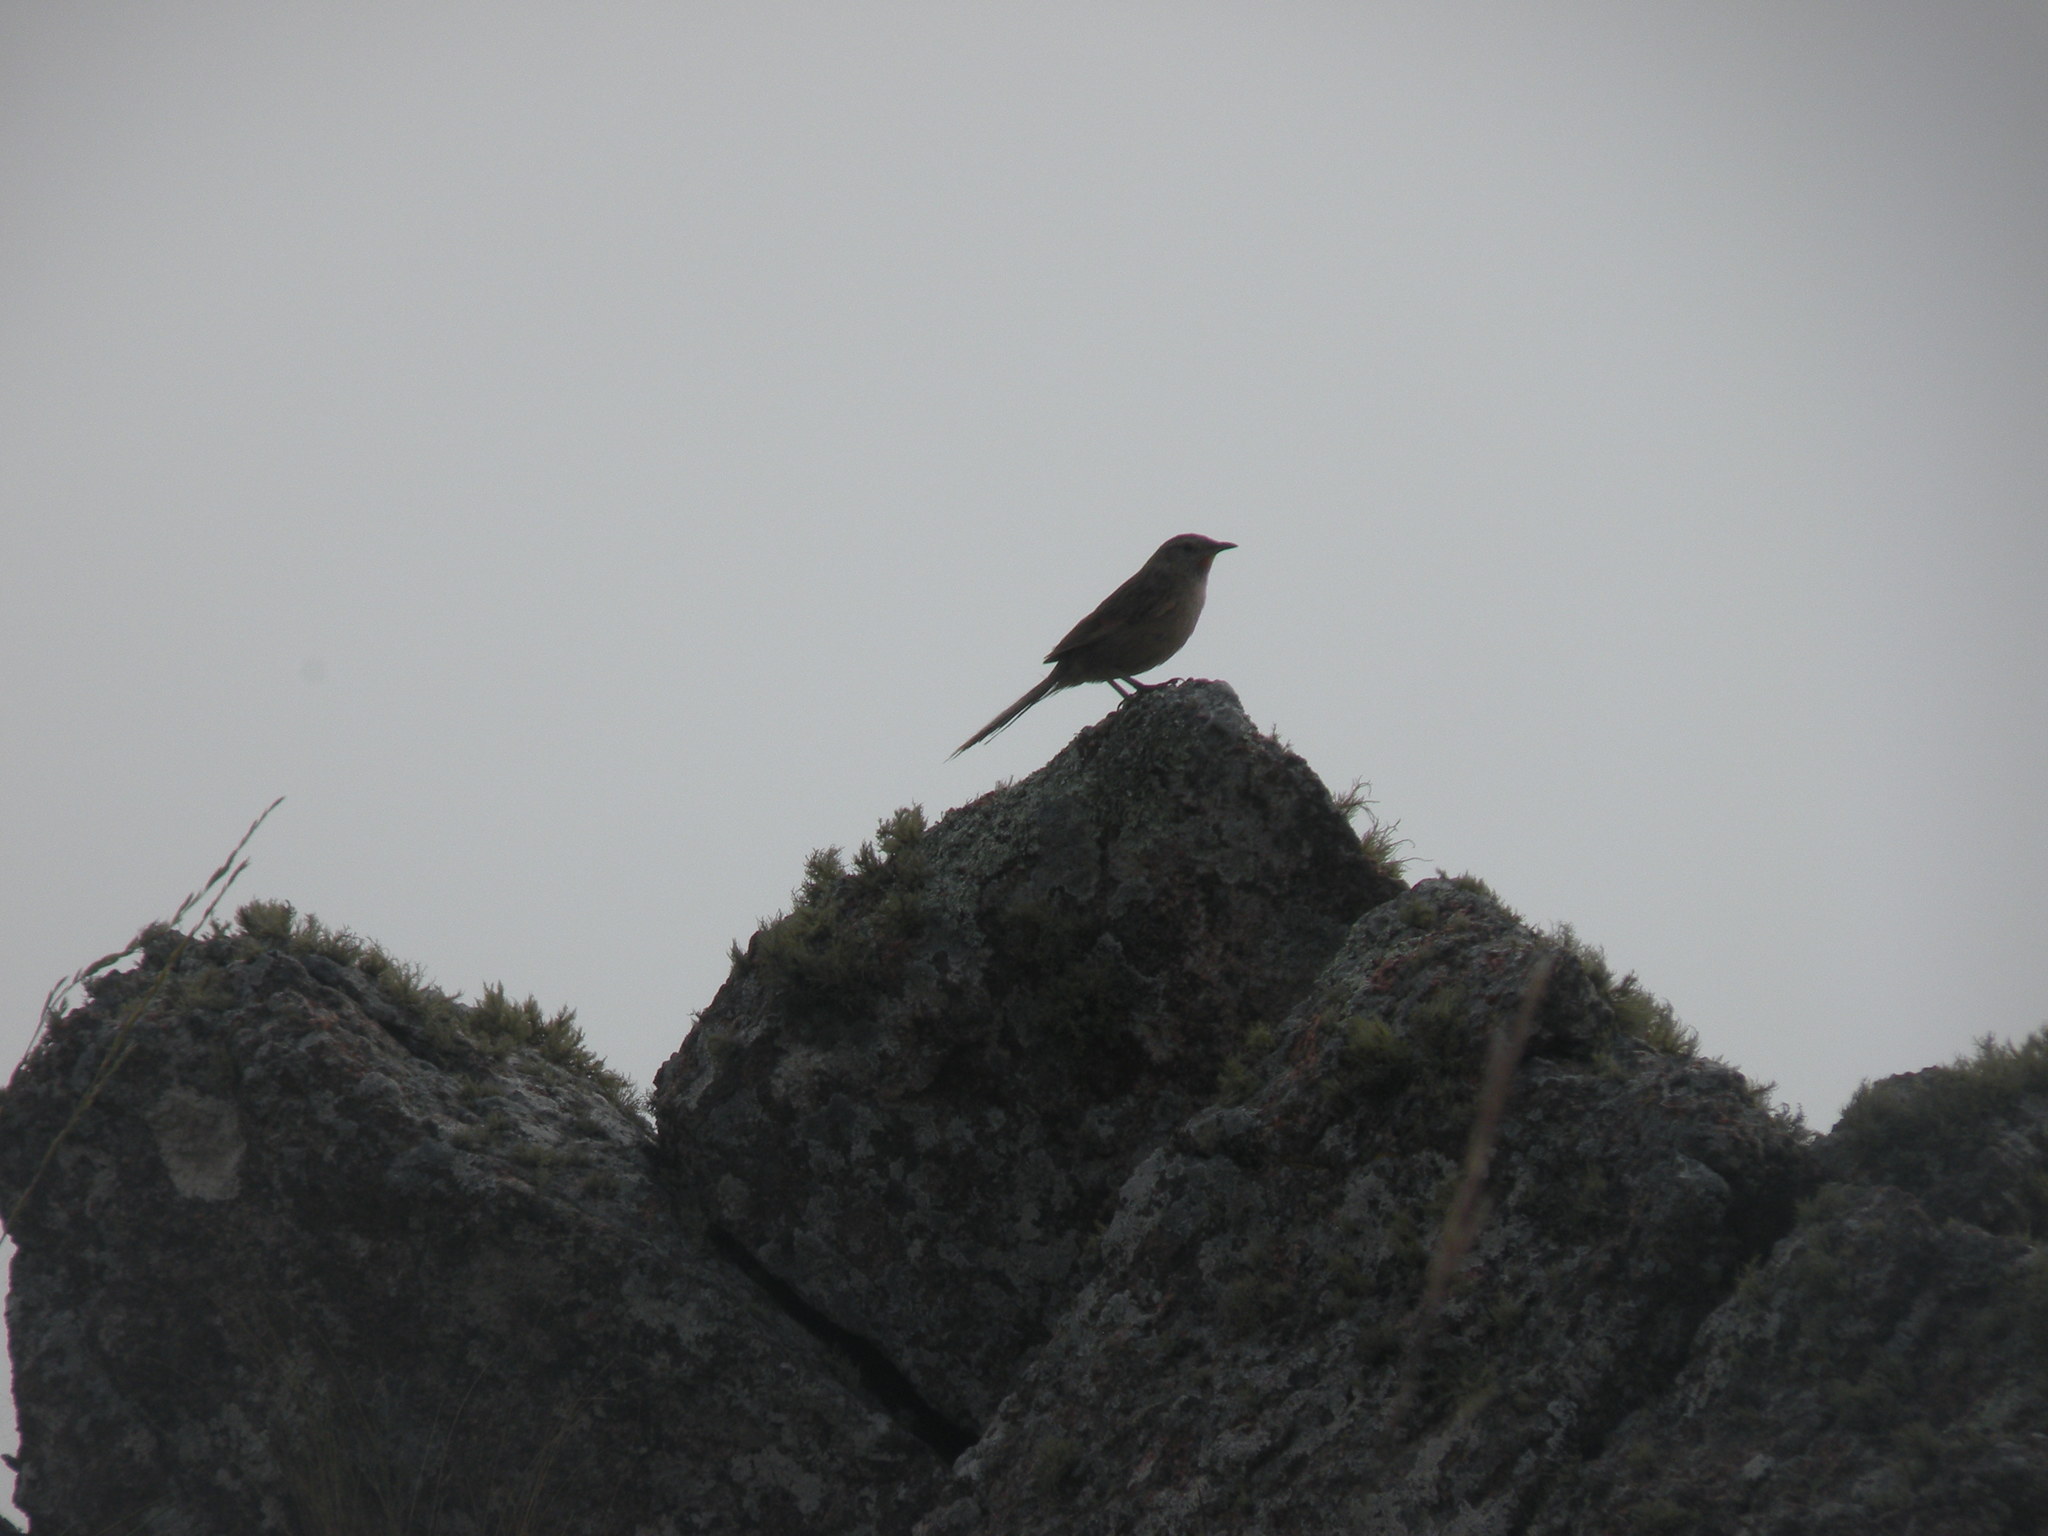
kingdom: Animalia
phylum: Chordata
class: Aves
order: Passeriformes
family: Furnariidae
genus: Asthenes
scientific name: Asthenes wyatti
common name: Streak-backed canastero
